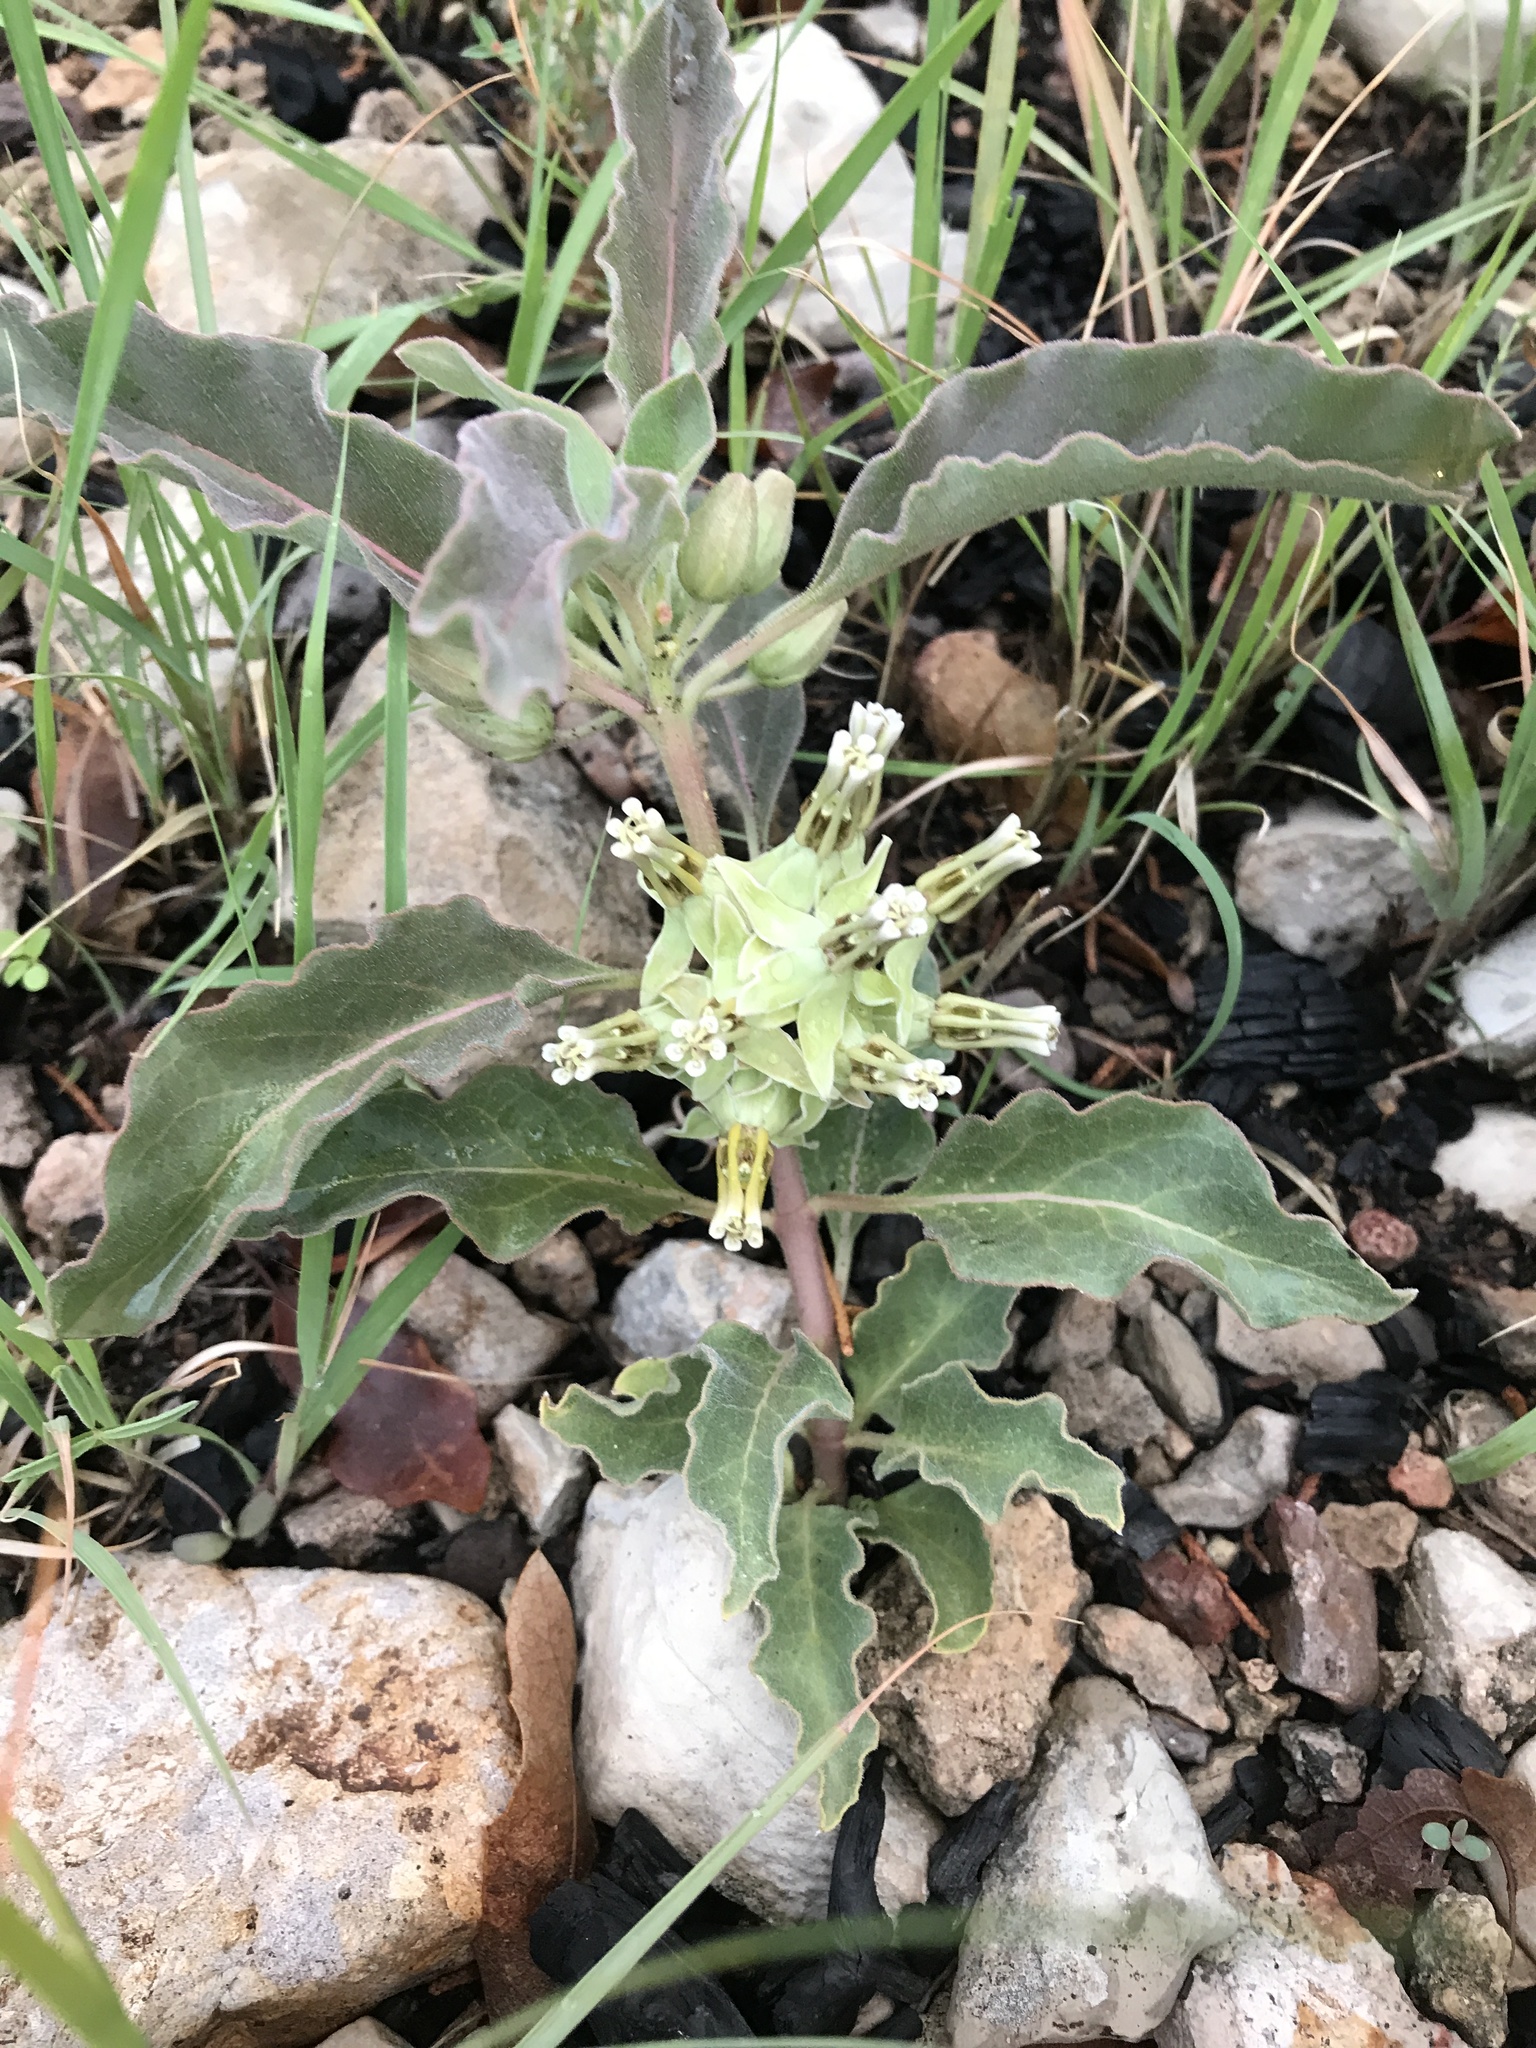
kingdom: Plantae
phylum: Tracheophyta
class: Magnoliopsida
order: Gentianales
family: Apocynaceae
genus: Asclepias
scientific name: Asclepias oenotheroides
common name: Zizotes milkweed
